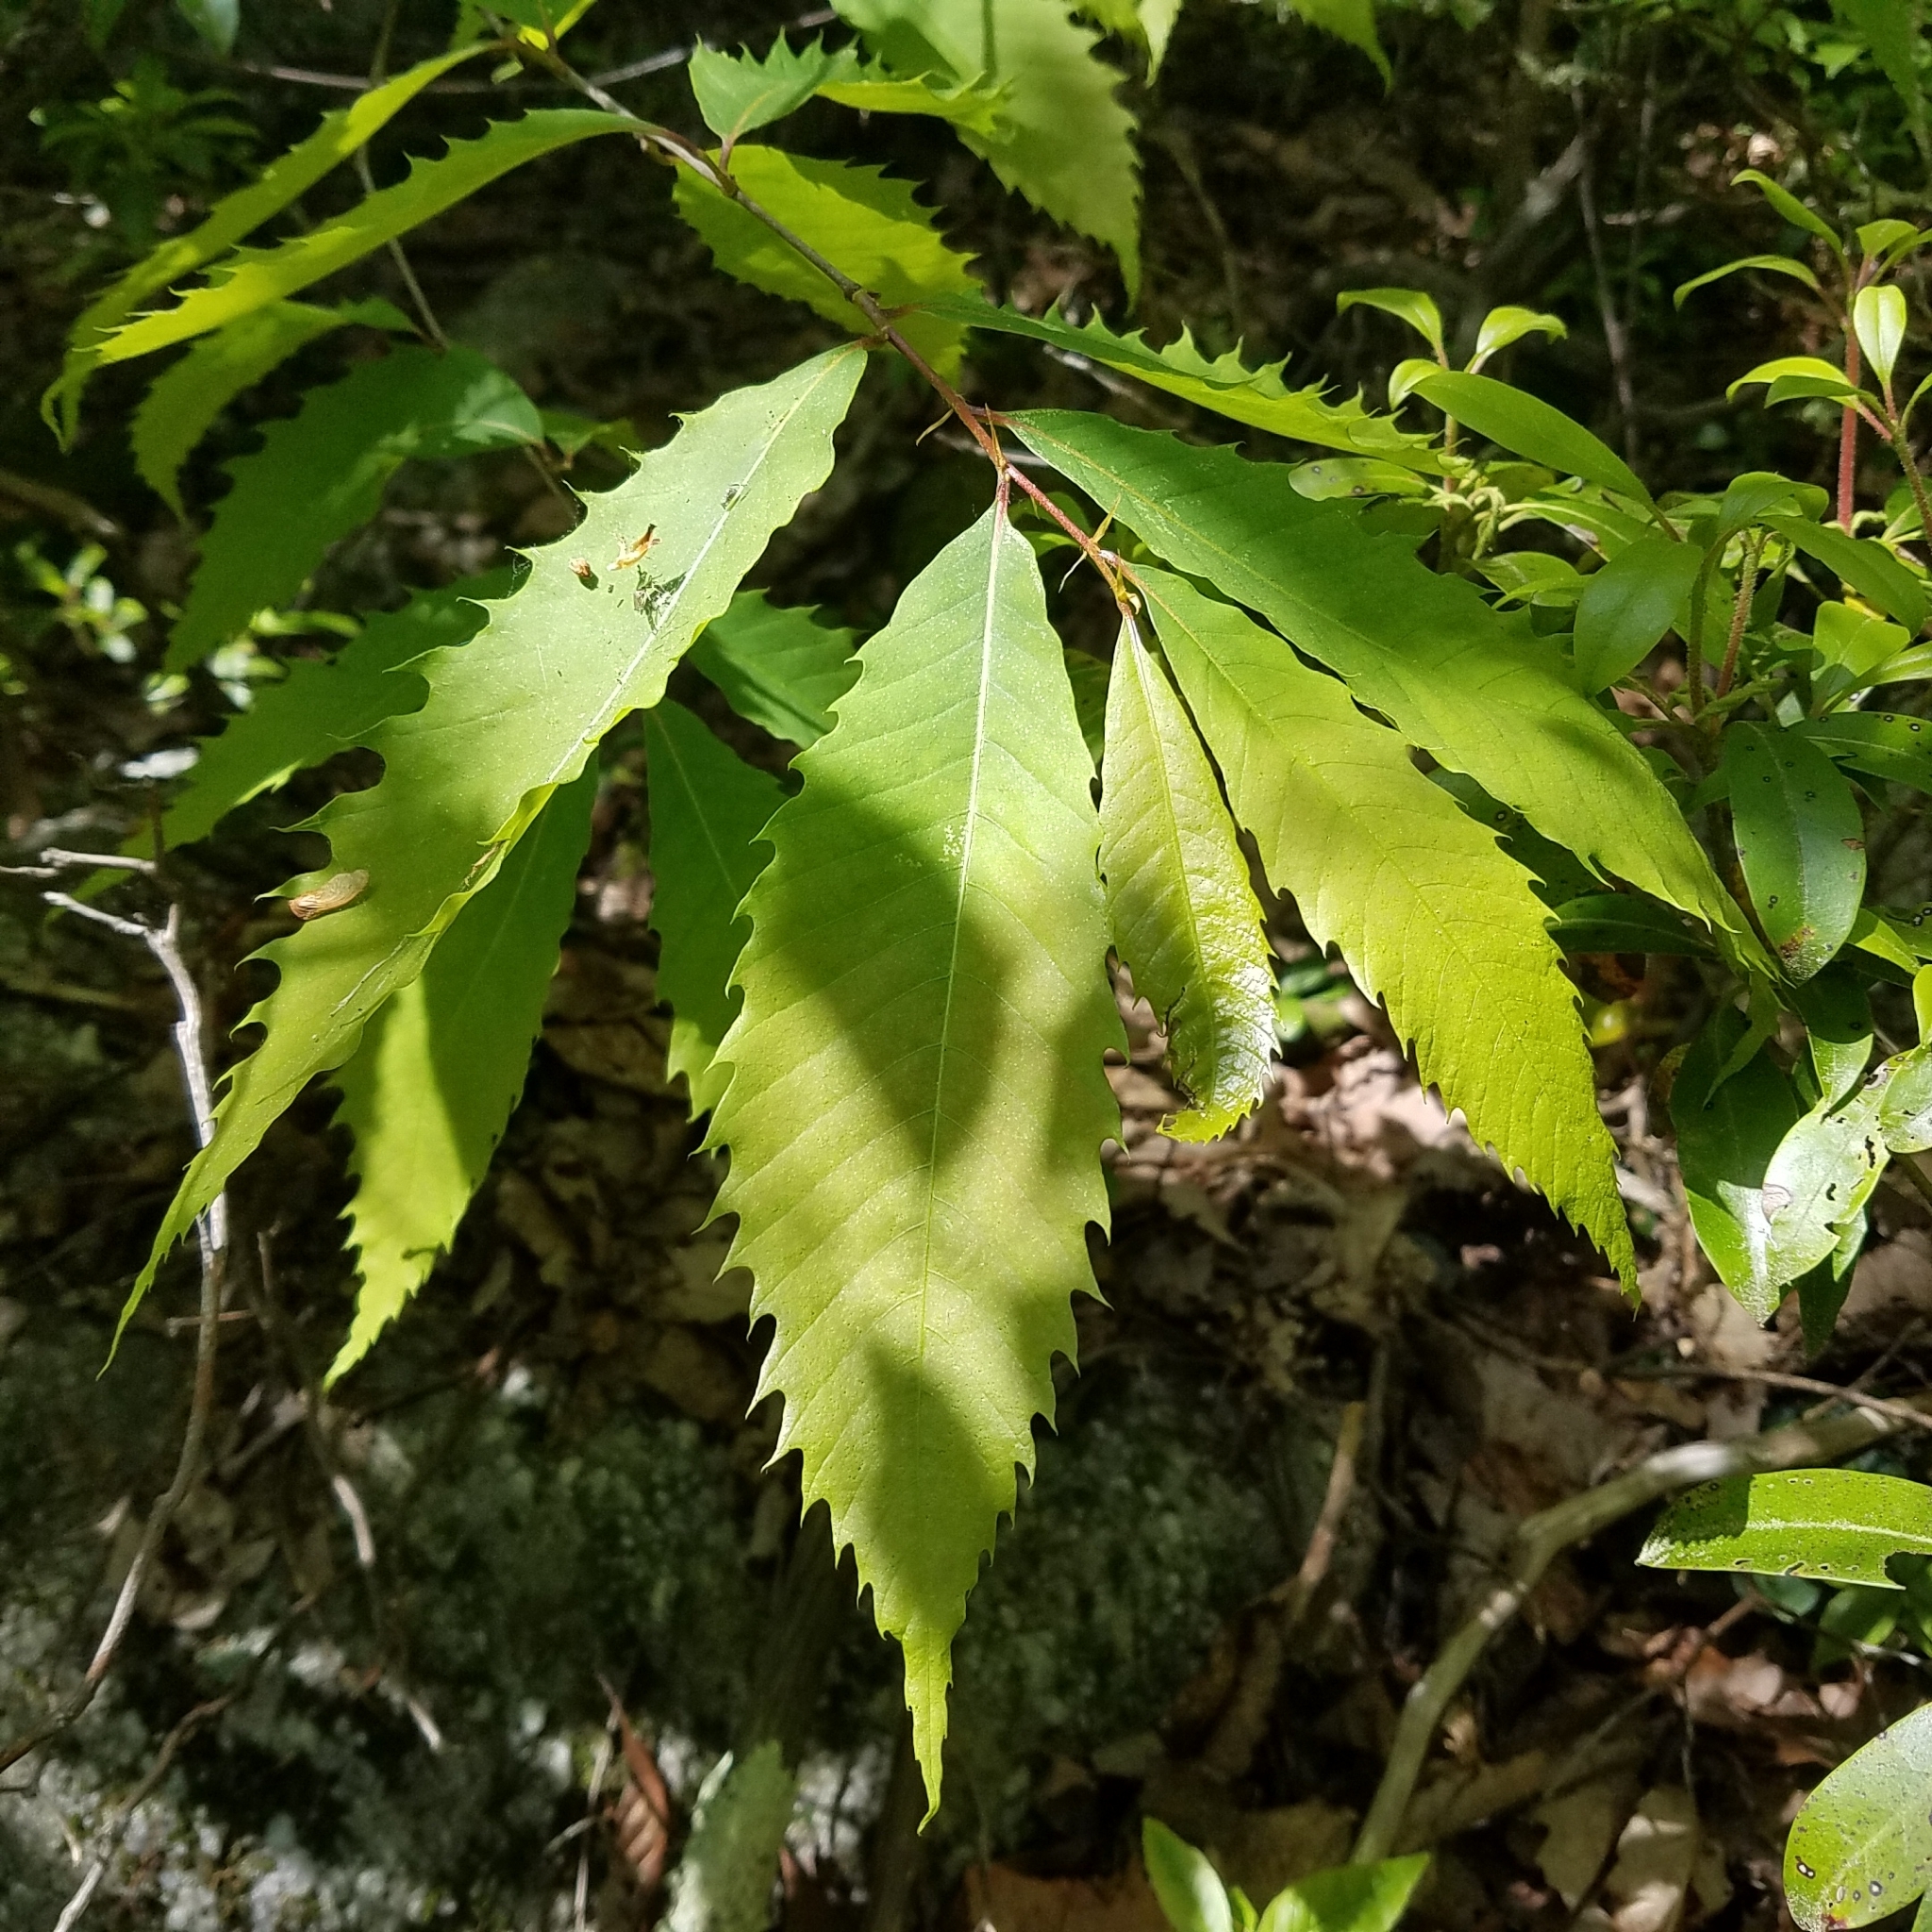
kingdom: Plantae
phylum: Tracheophyta
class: Magnoliopsida
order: Fagales
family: Fagaceae
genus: Castanea
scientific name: Castanea dentata
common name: American chestnut
